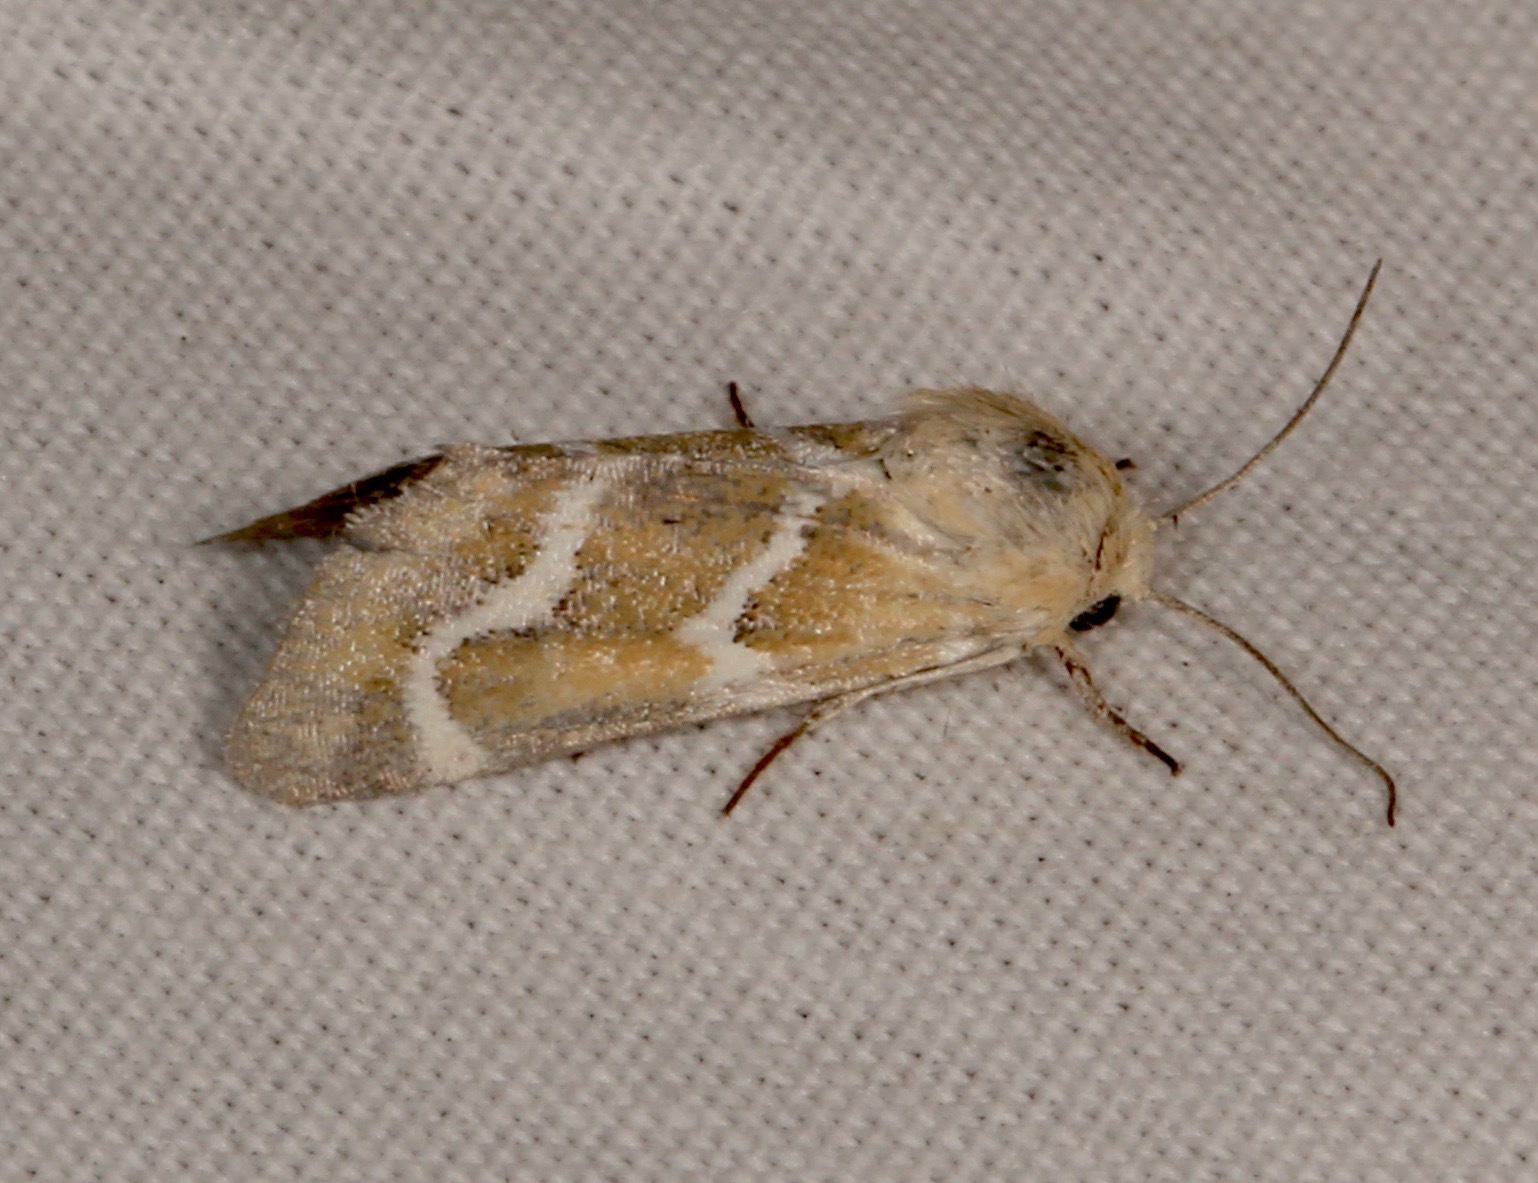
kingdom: Animalia
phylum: Arthropoda
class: Insecta
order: Lepidoptera
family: Noctuidae
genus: Schinia
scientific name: Schinia biundulata
